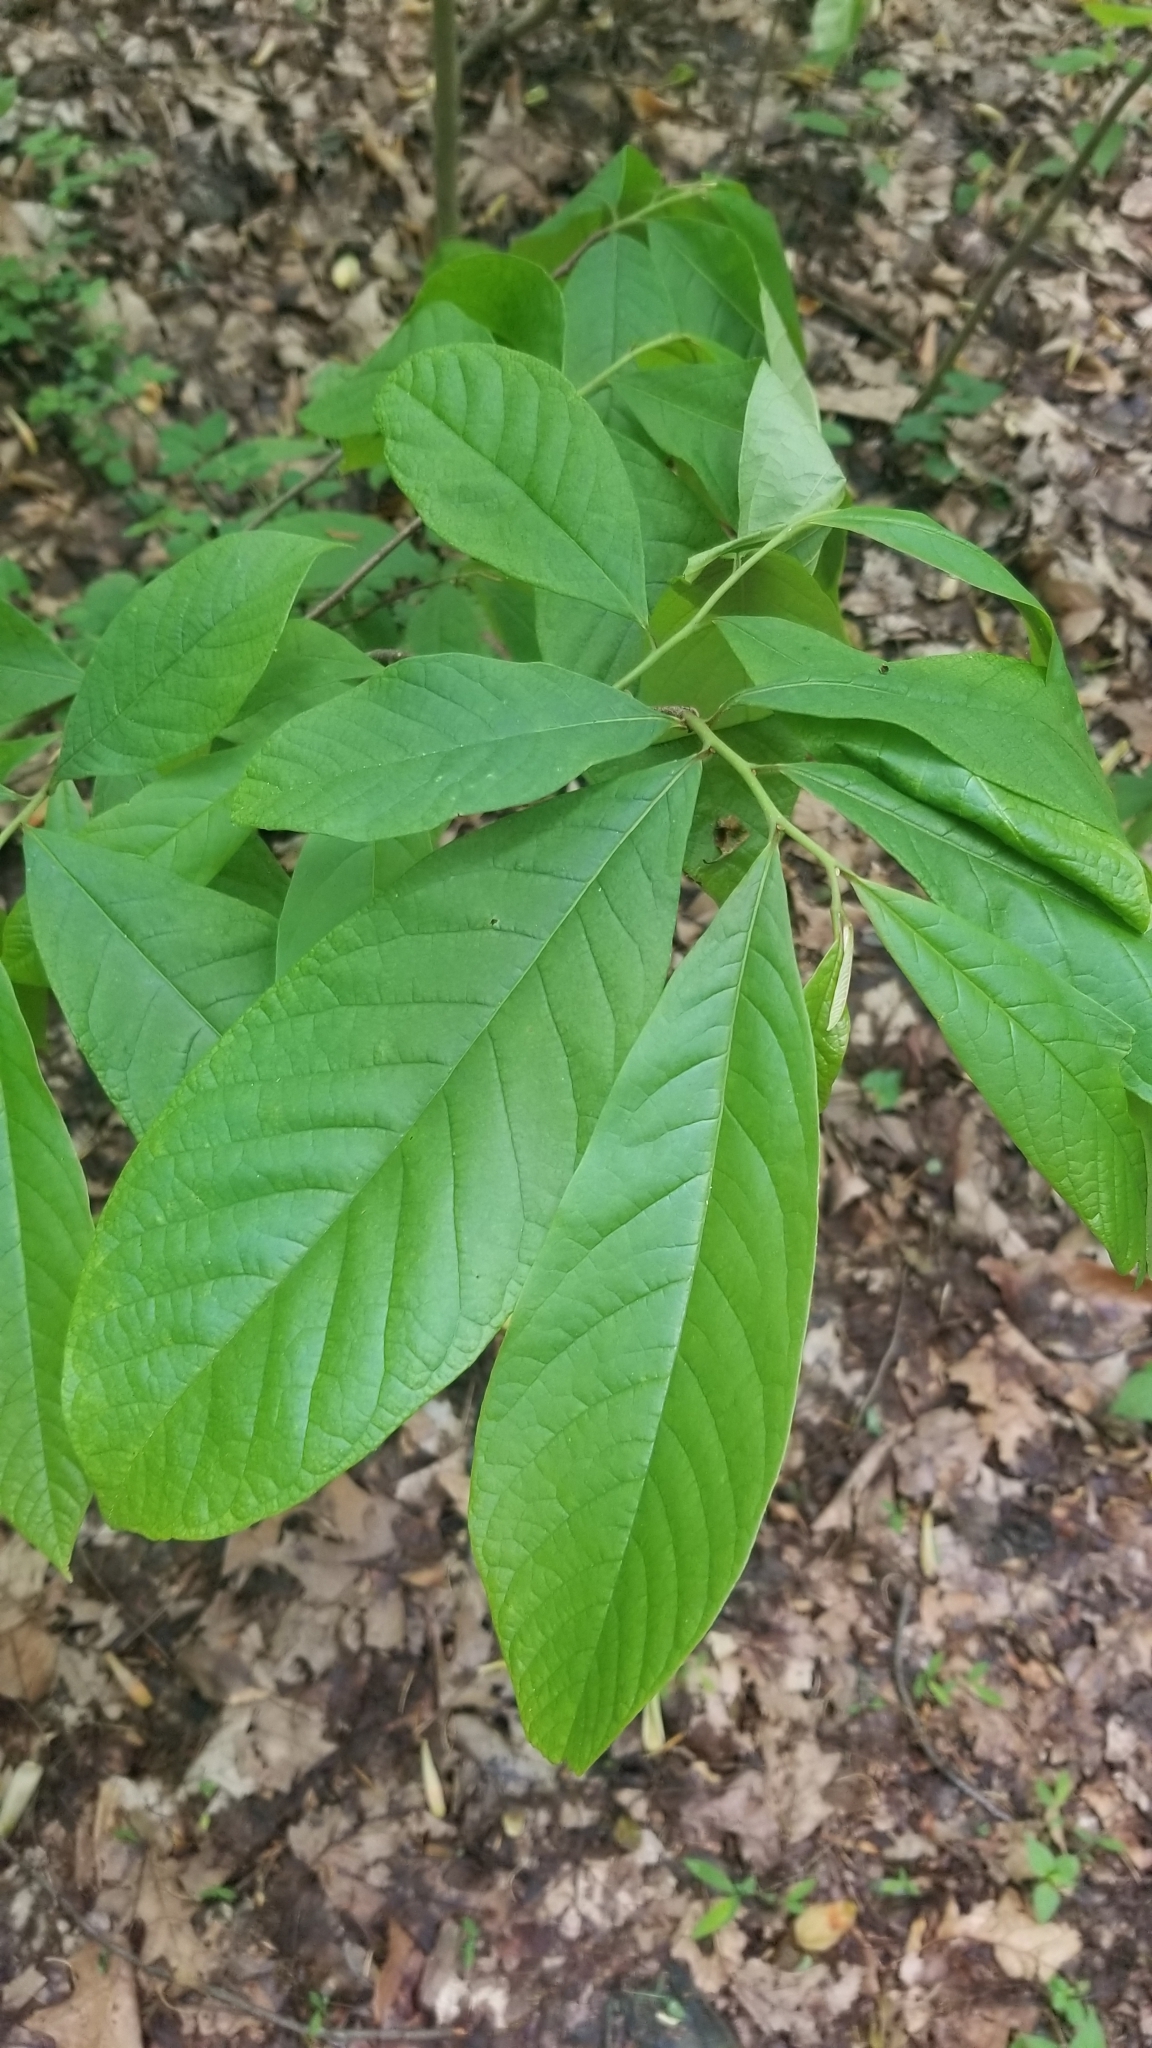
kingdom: Plantae
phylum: Tracheophyta
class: Magnoliopsida
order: Magnoliales
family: Annonaceae
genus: Asimina
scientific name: Asimina triloba
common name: Dog-banana
